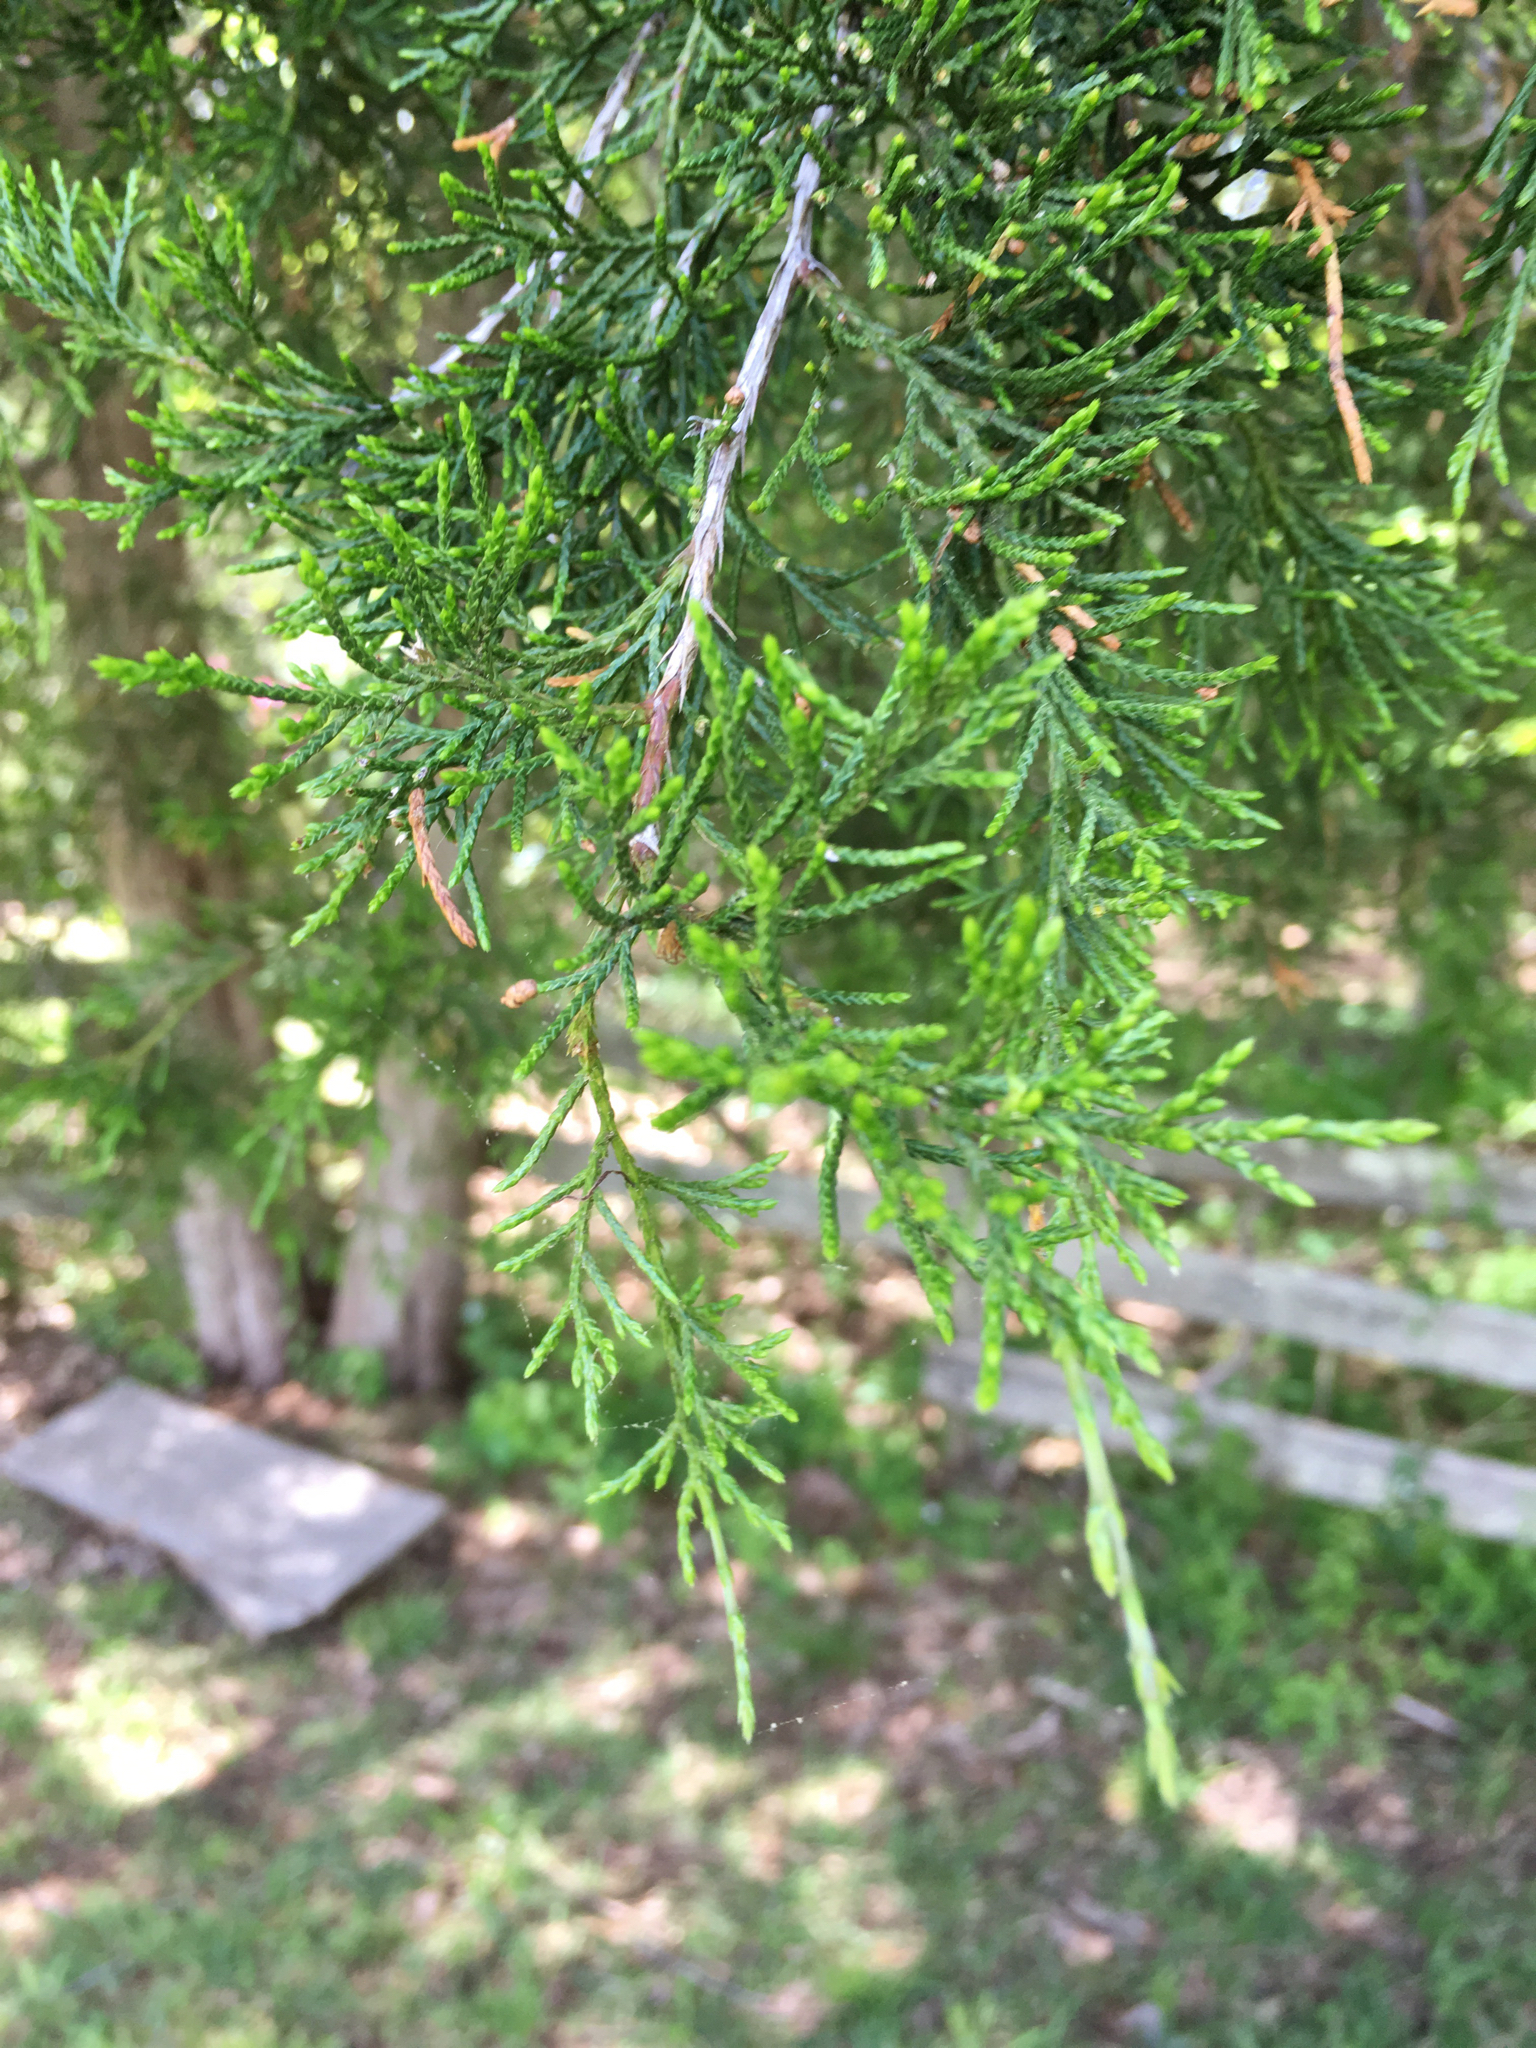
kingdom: Plantae
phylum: Tracheophyta
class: Pinopsida
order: Pinales
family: Cupressaceae
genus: Juniperus
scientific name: Juniperus virginiana
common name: Red juniper
